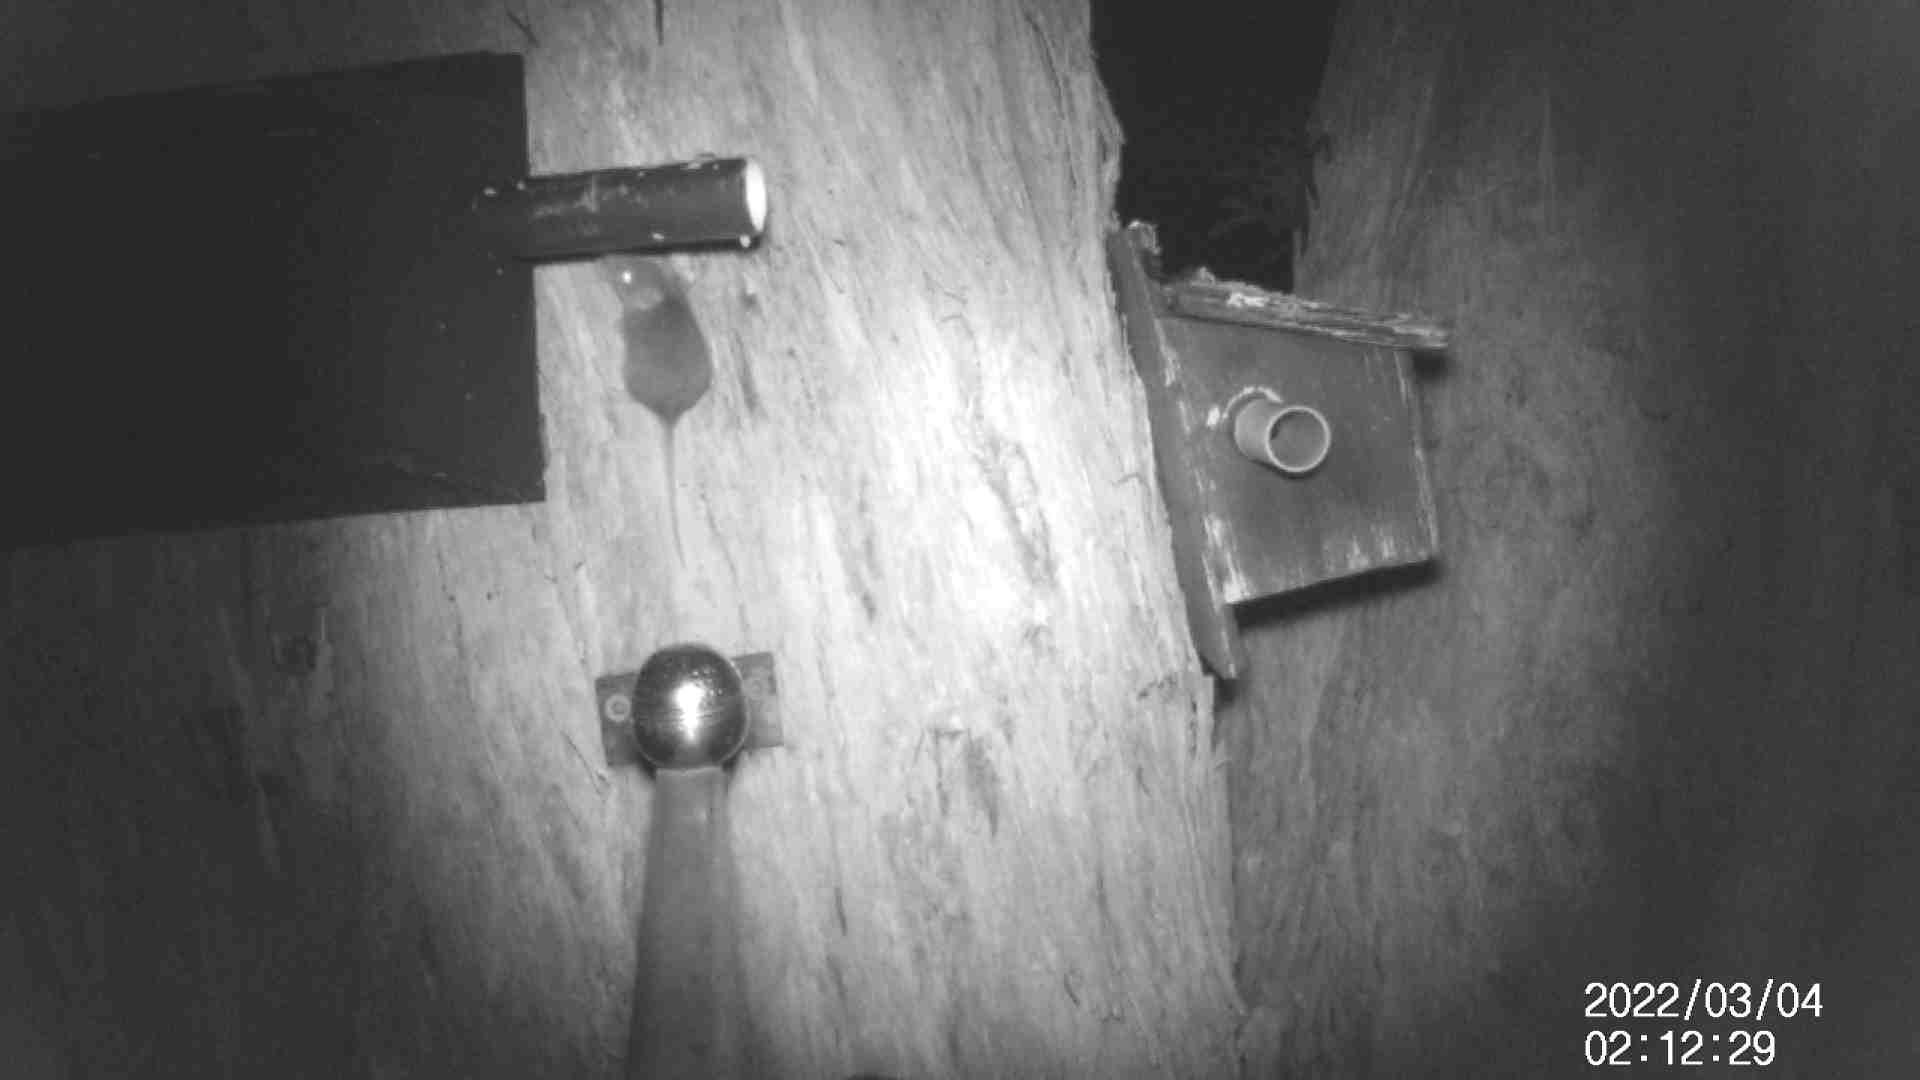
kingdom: Animalia
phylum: Chordata
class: Mammalia
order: Dasyuromorphia
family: Dasyuridae
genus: Antechinus
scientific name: Antechinus agilis
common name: Agile antechinus
